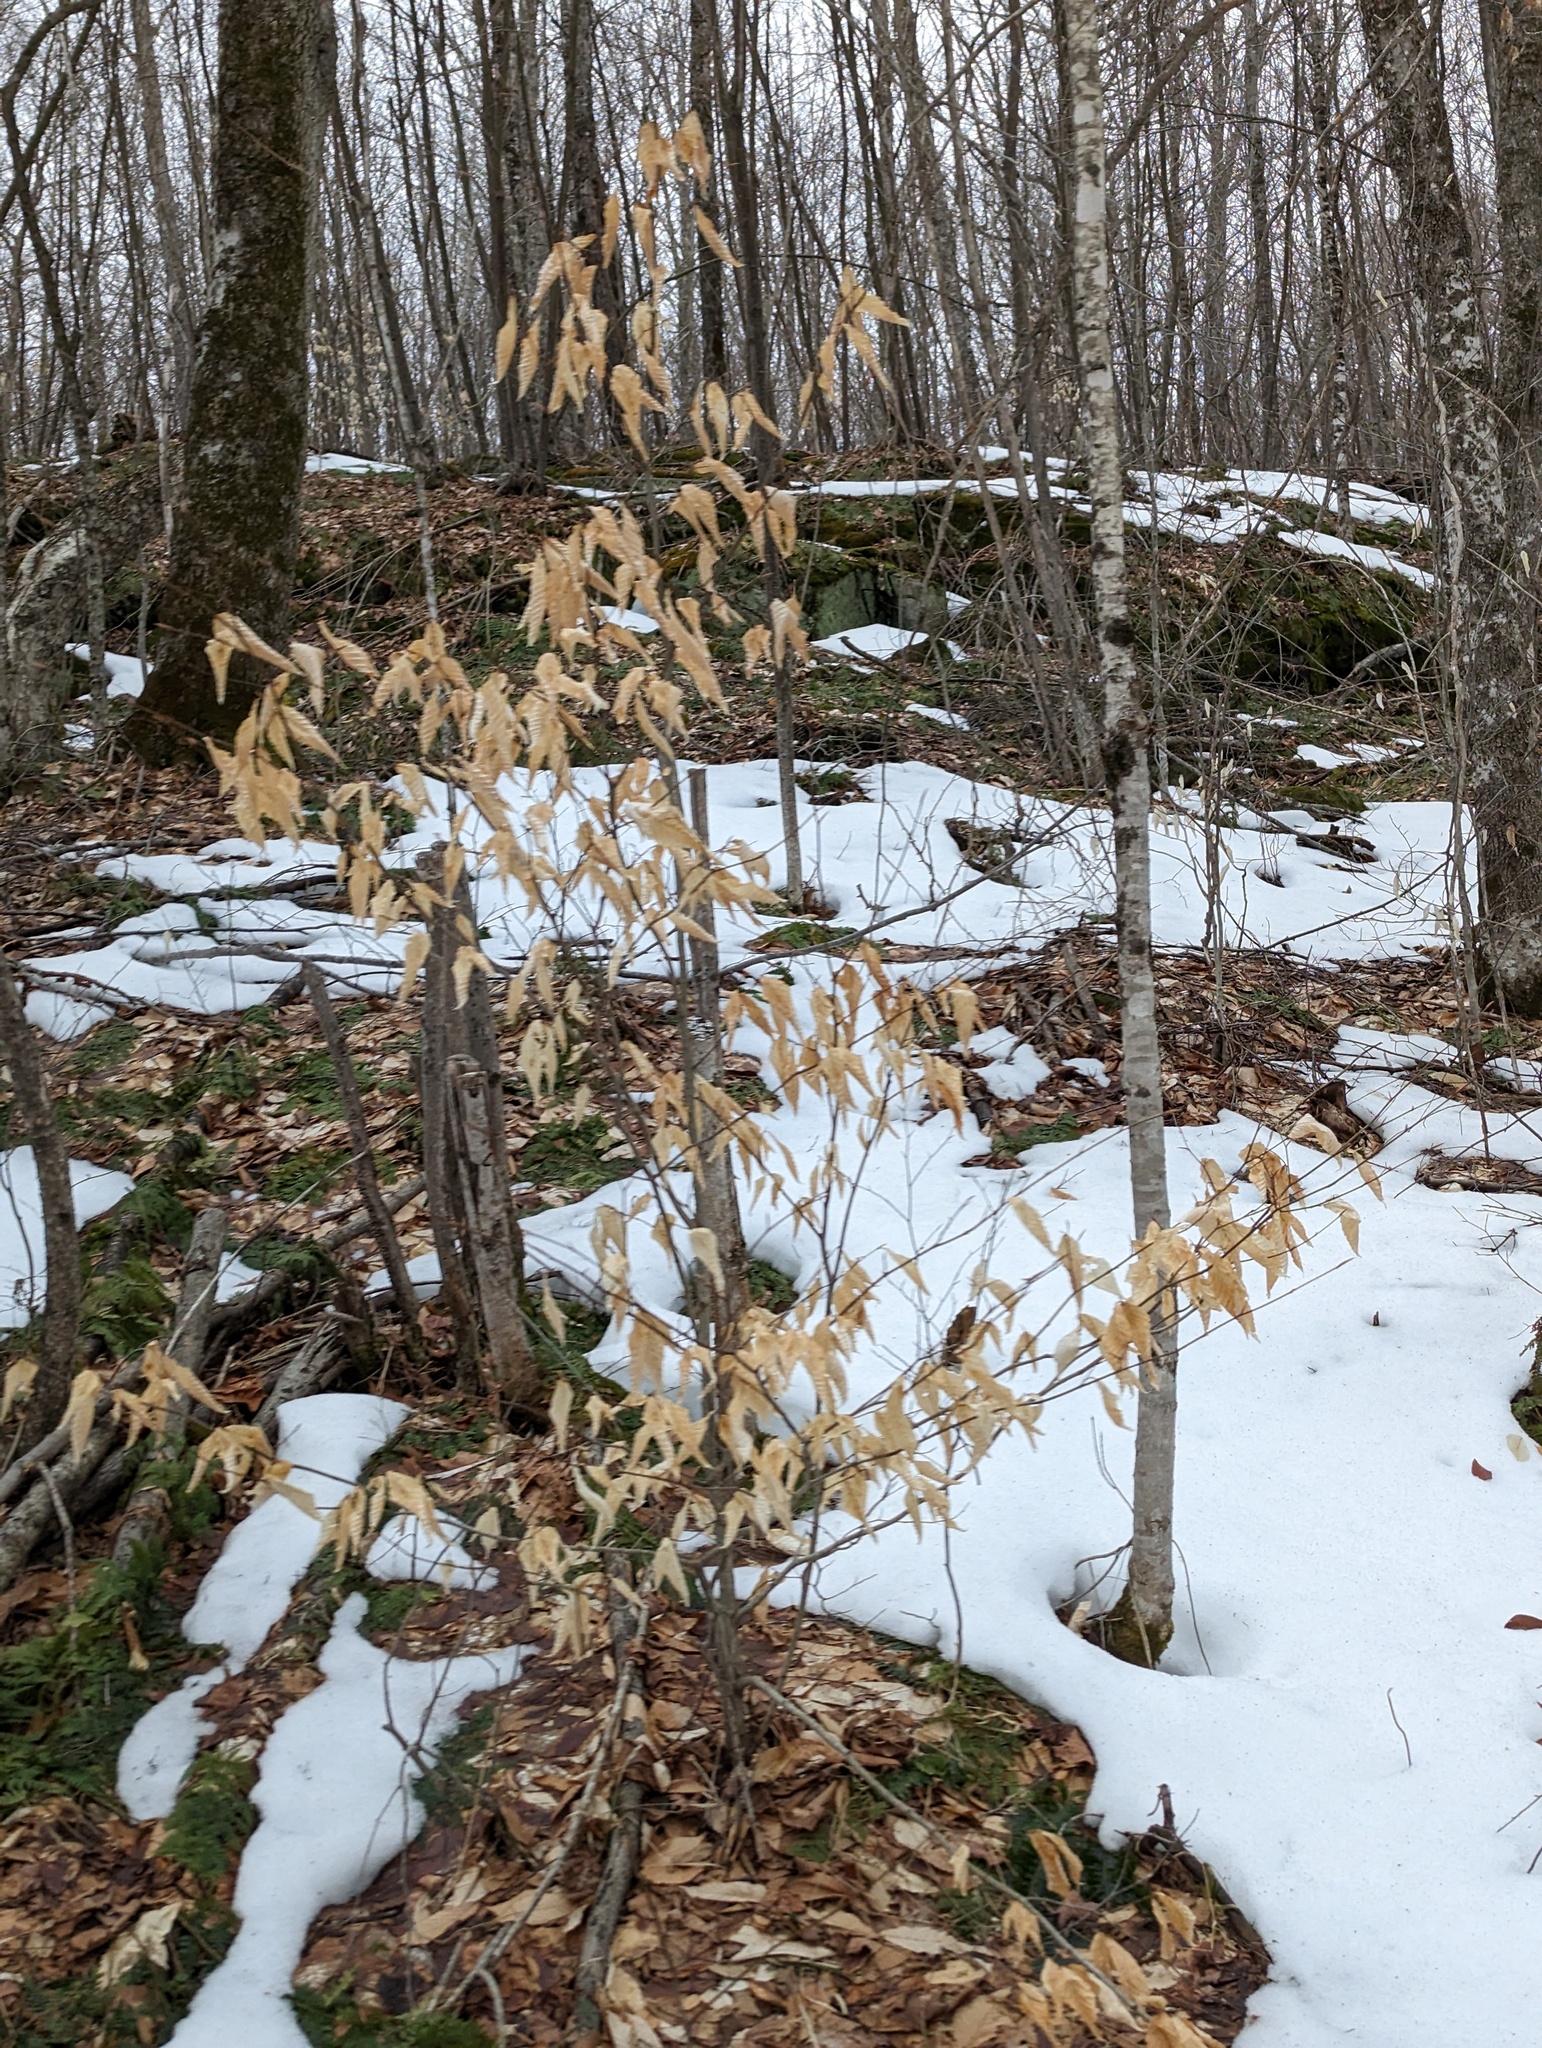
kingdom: Plantae
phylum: Tracheophyta
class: Magnoliopsida
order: Fagales
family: Fagaceae
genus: Fagus
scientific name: Fagus grandifolia
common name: American beech
